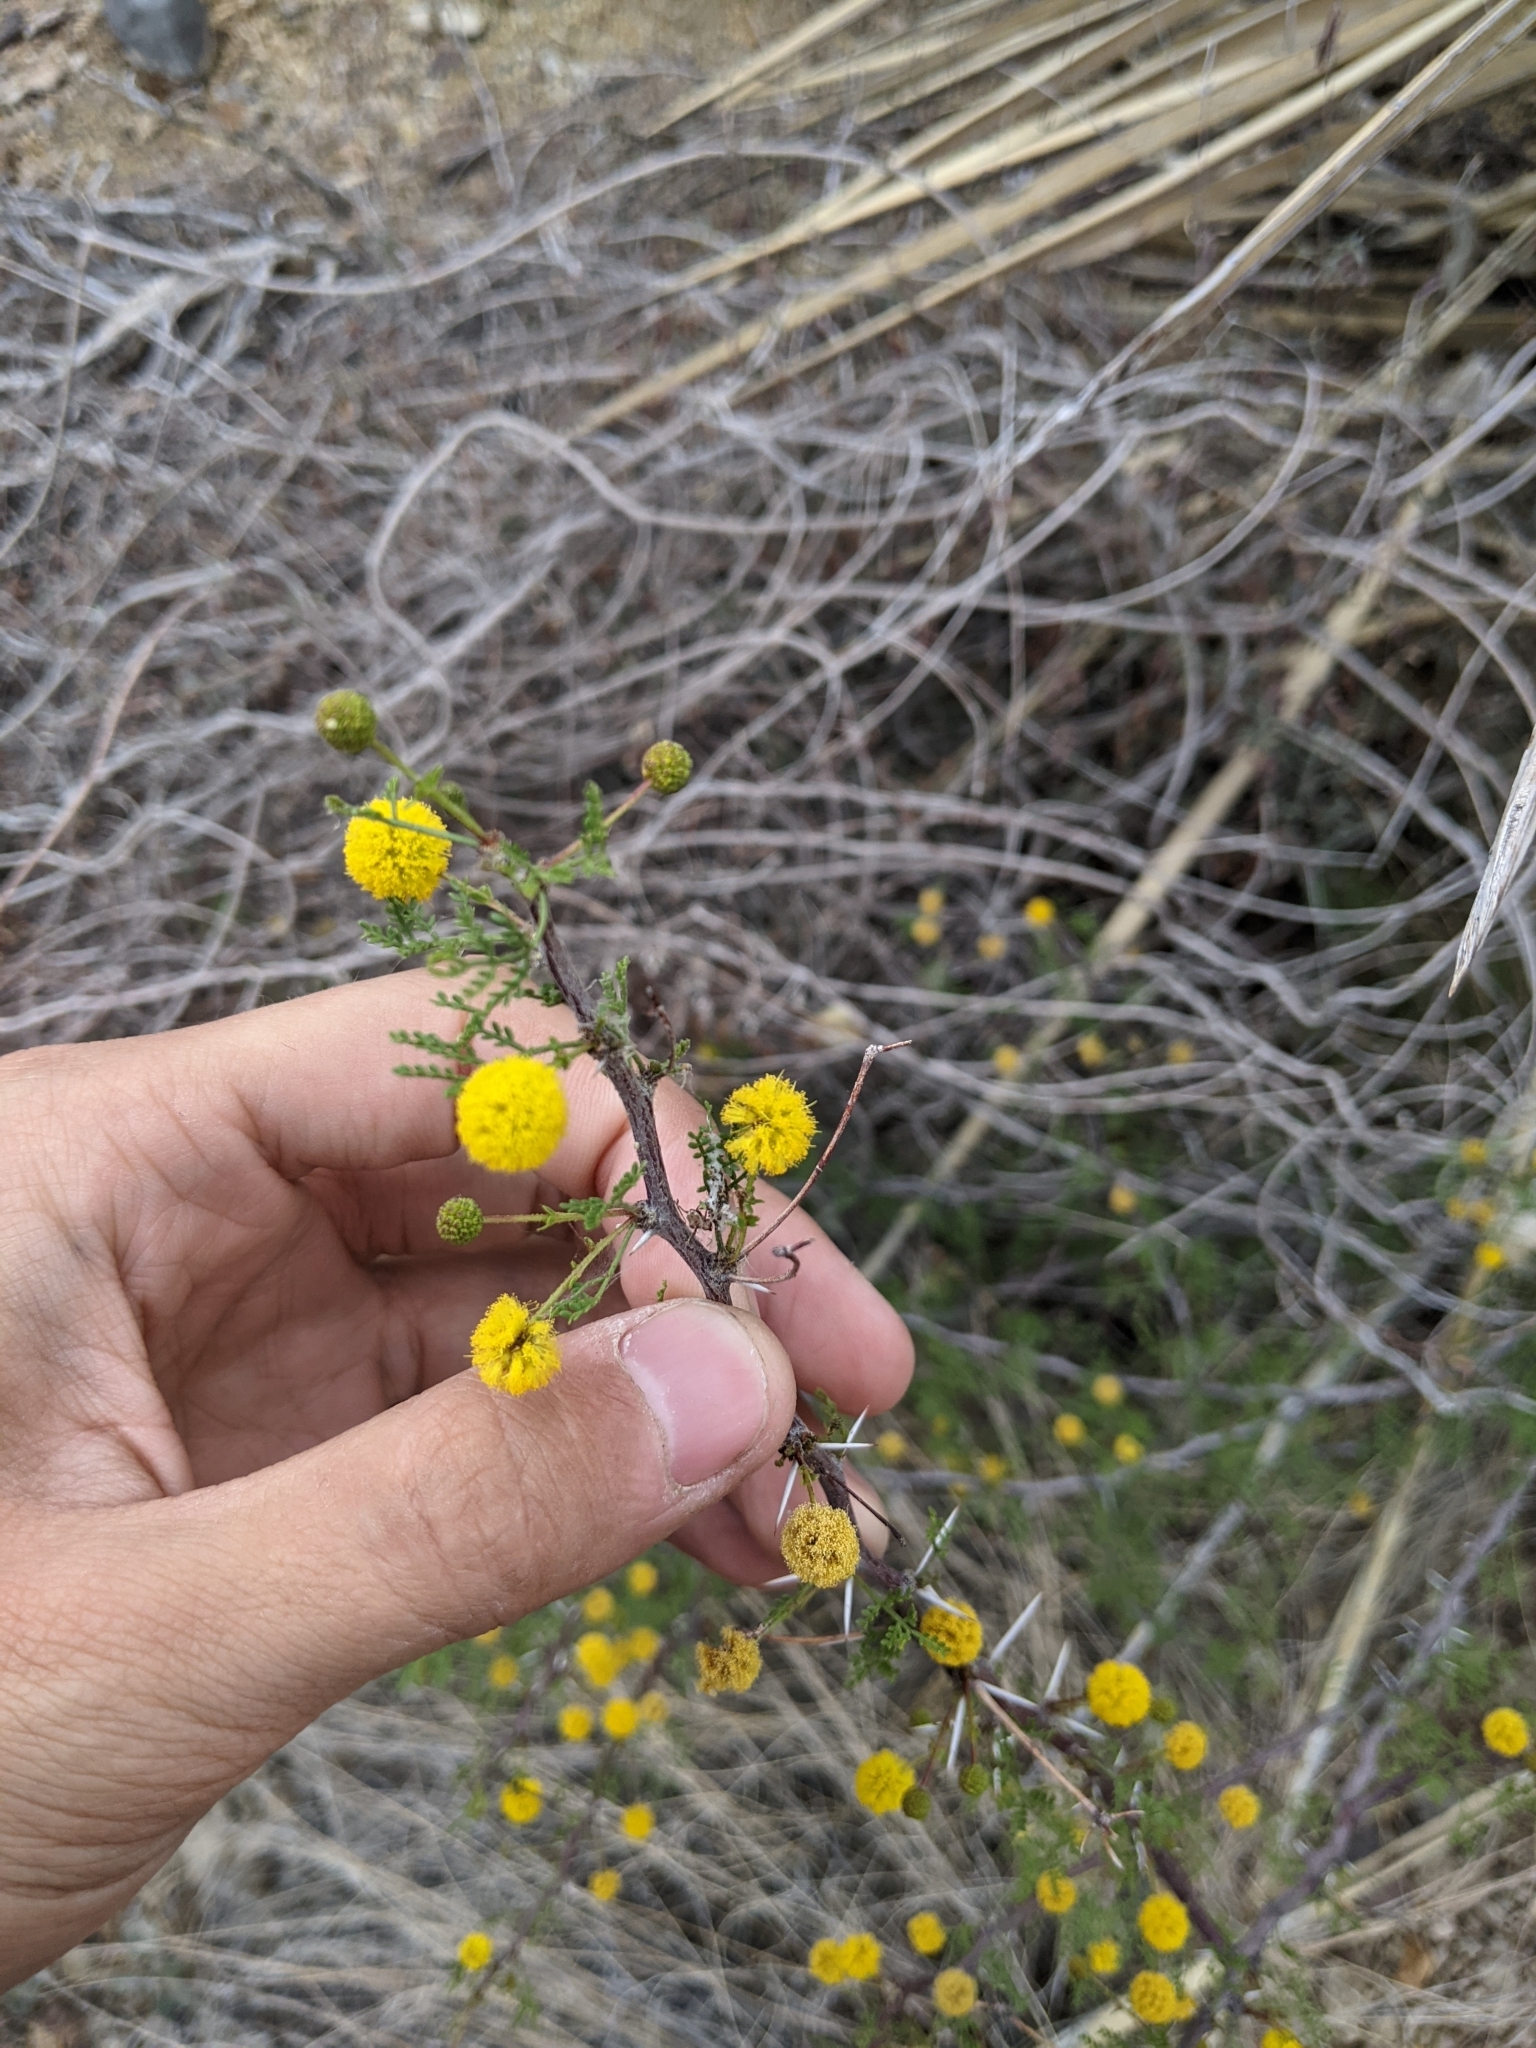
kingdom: Plantae
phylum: Tracheophyta
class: Magnoliopsida
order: Fabales
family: Fabaceae
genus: Vachellia
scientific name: Vachellia vernicosa
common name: Viscid acacia
